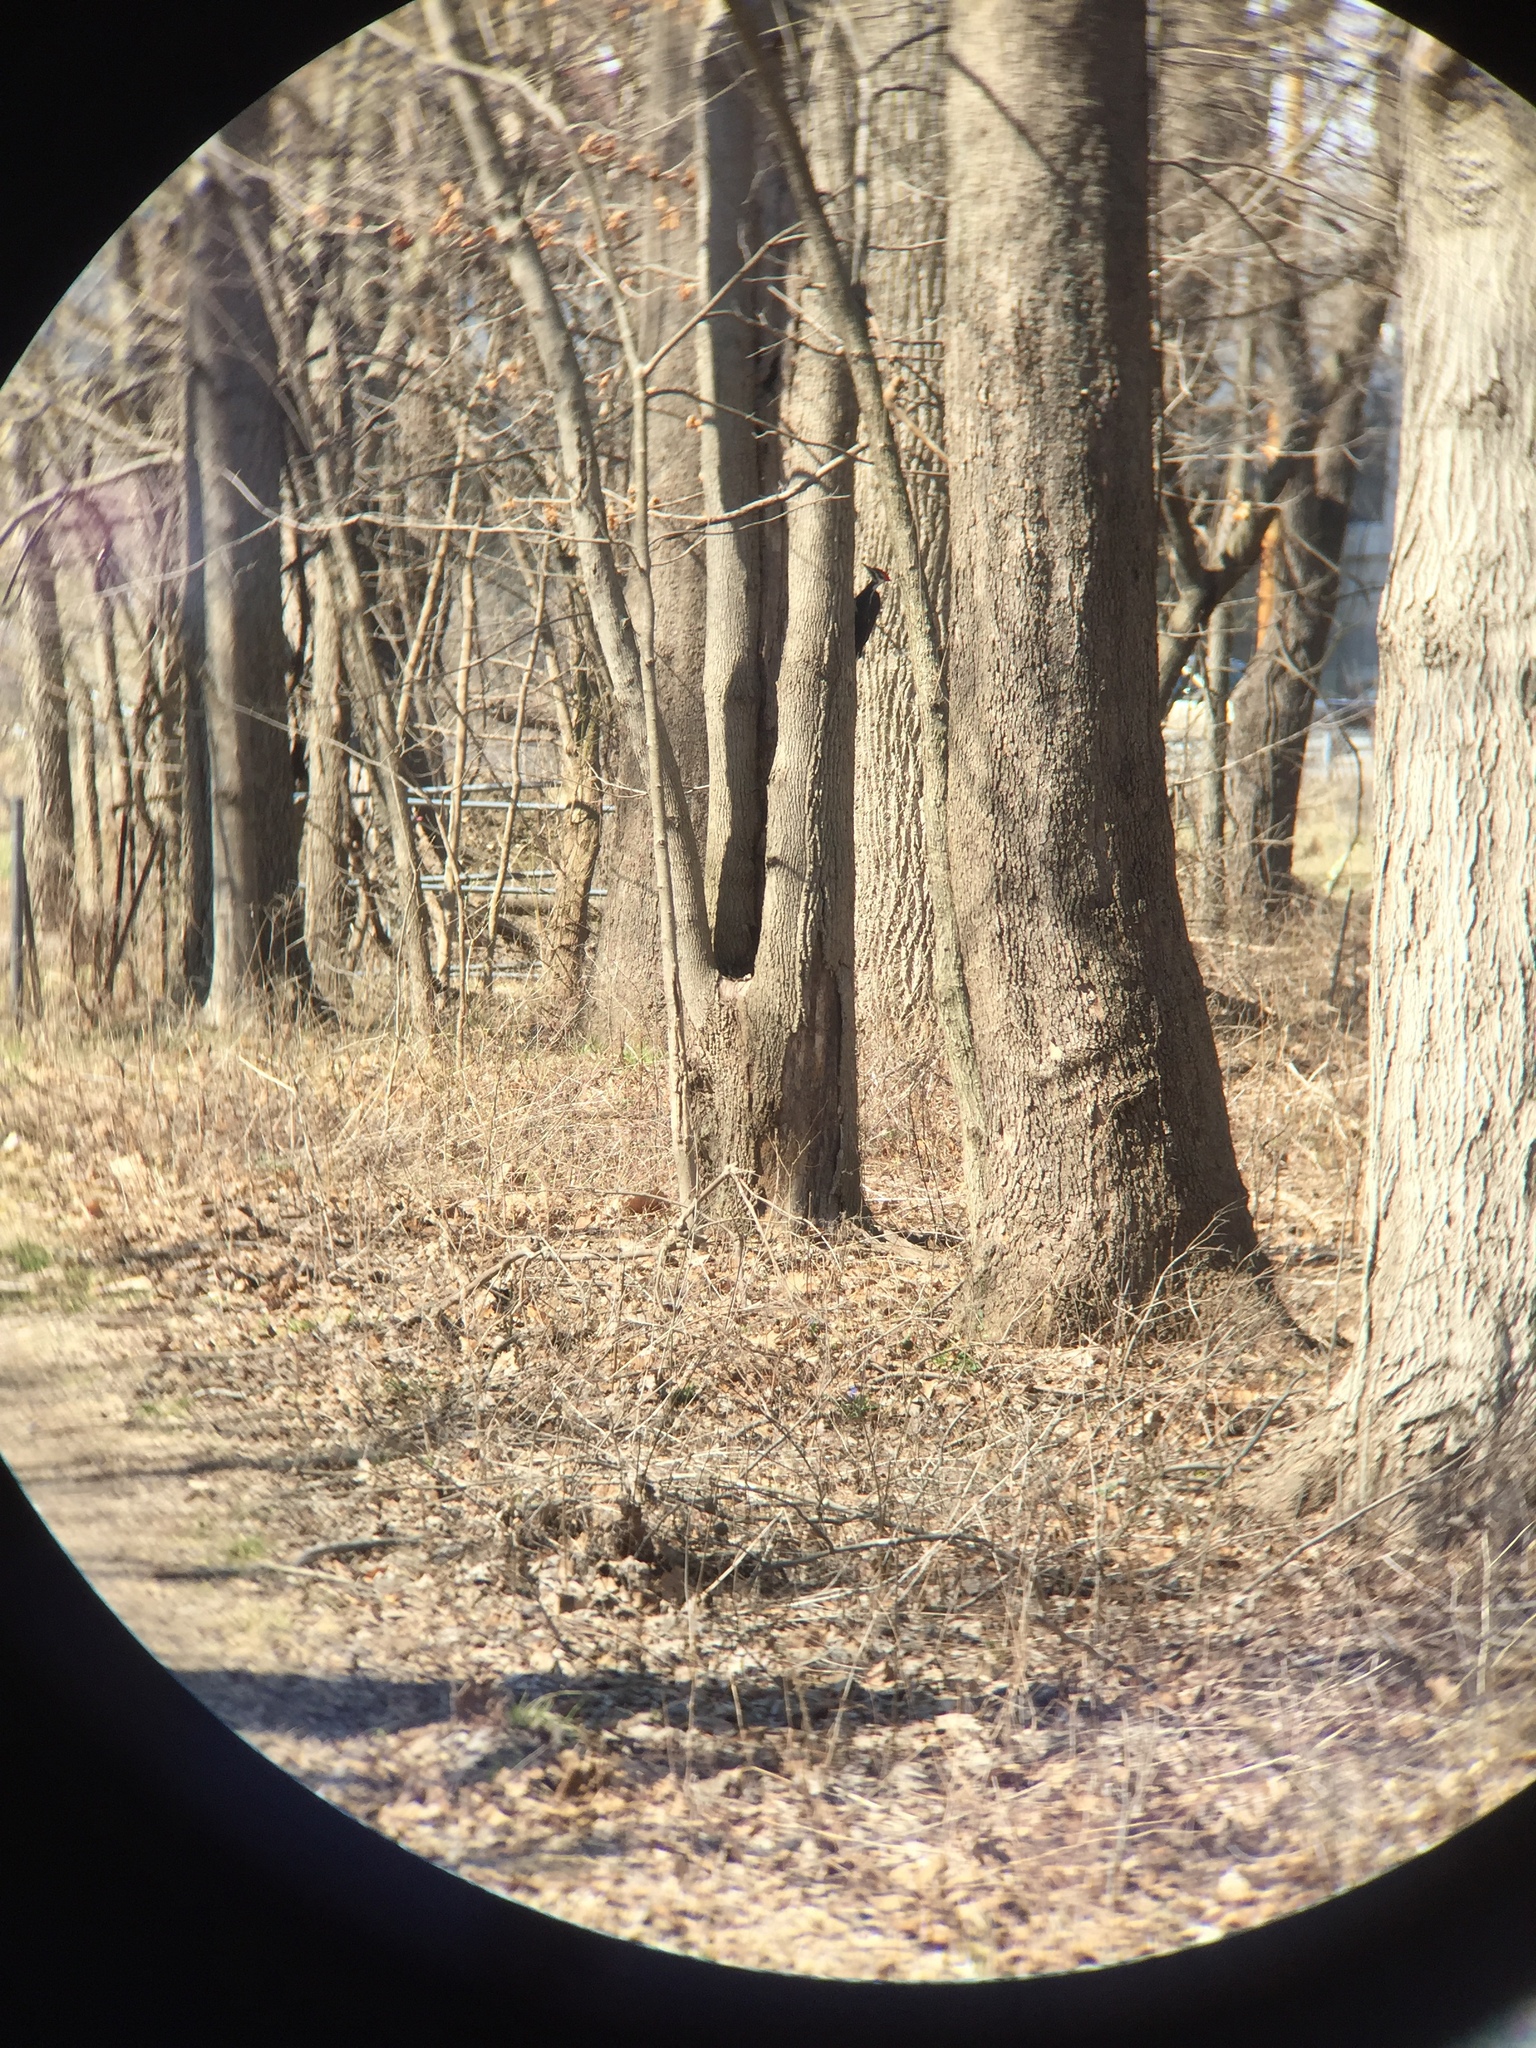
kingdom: Animalia
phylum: Chordata
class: Aves
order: Piciformes
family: Picidae
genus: Dryocopus
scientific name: Dryocopus pileatus
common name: Pileated woodpecker
